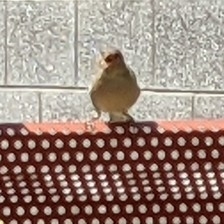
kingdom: Animalia
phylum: Chordata
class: Aves
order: Passeriformes
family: Passeridae
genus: Passer
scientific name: Passer domesticus
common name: House sparrow
